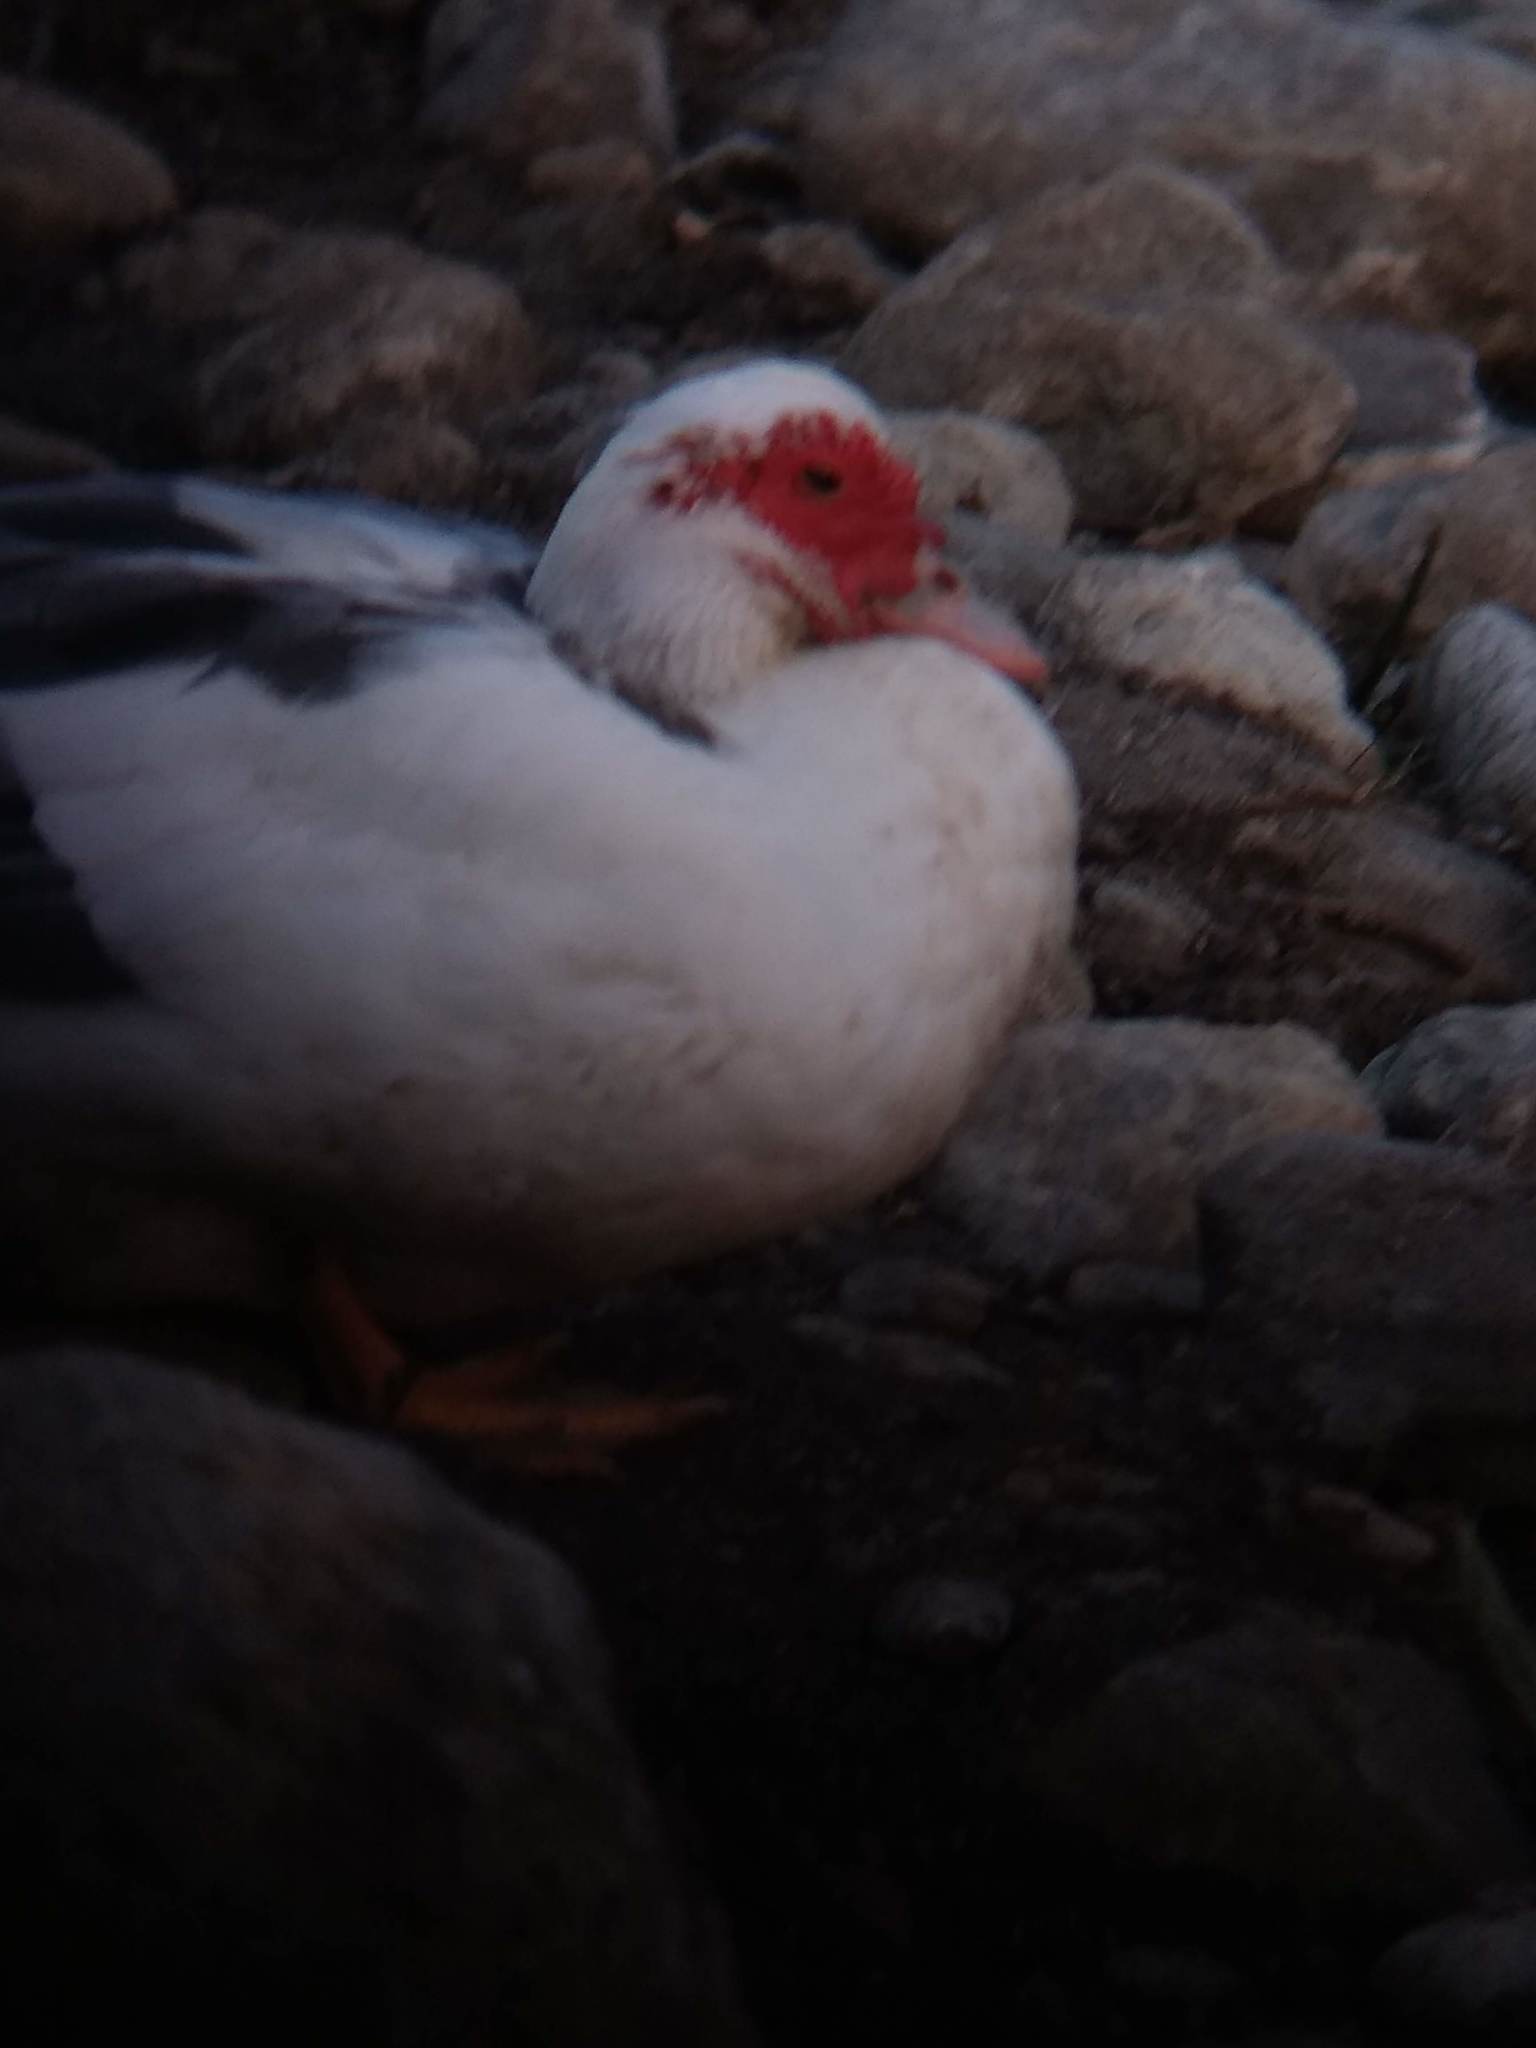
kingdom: Animalia
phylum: Chordata
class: Aves
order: Anseriformes
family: Anatidae
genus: Cairina
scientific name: Cairina moschata
